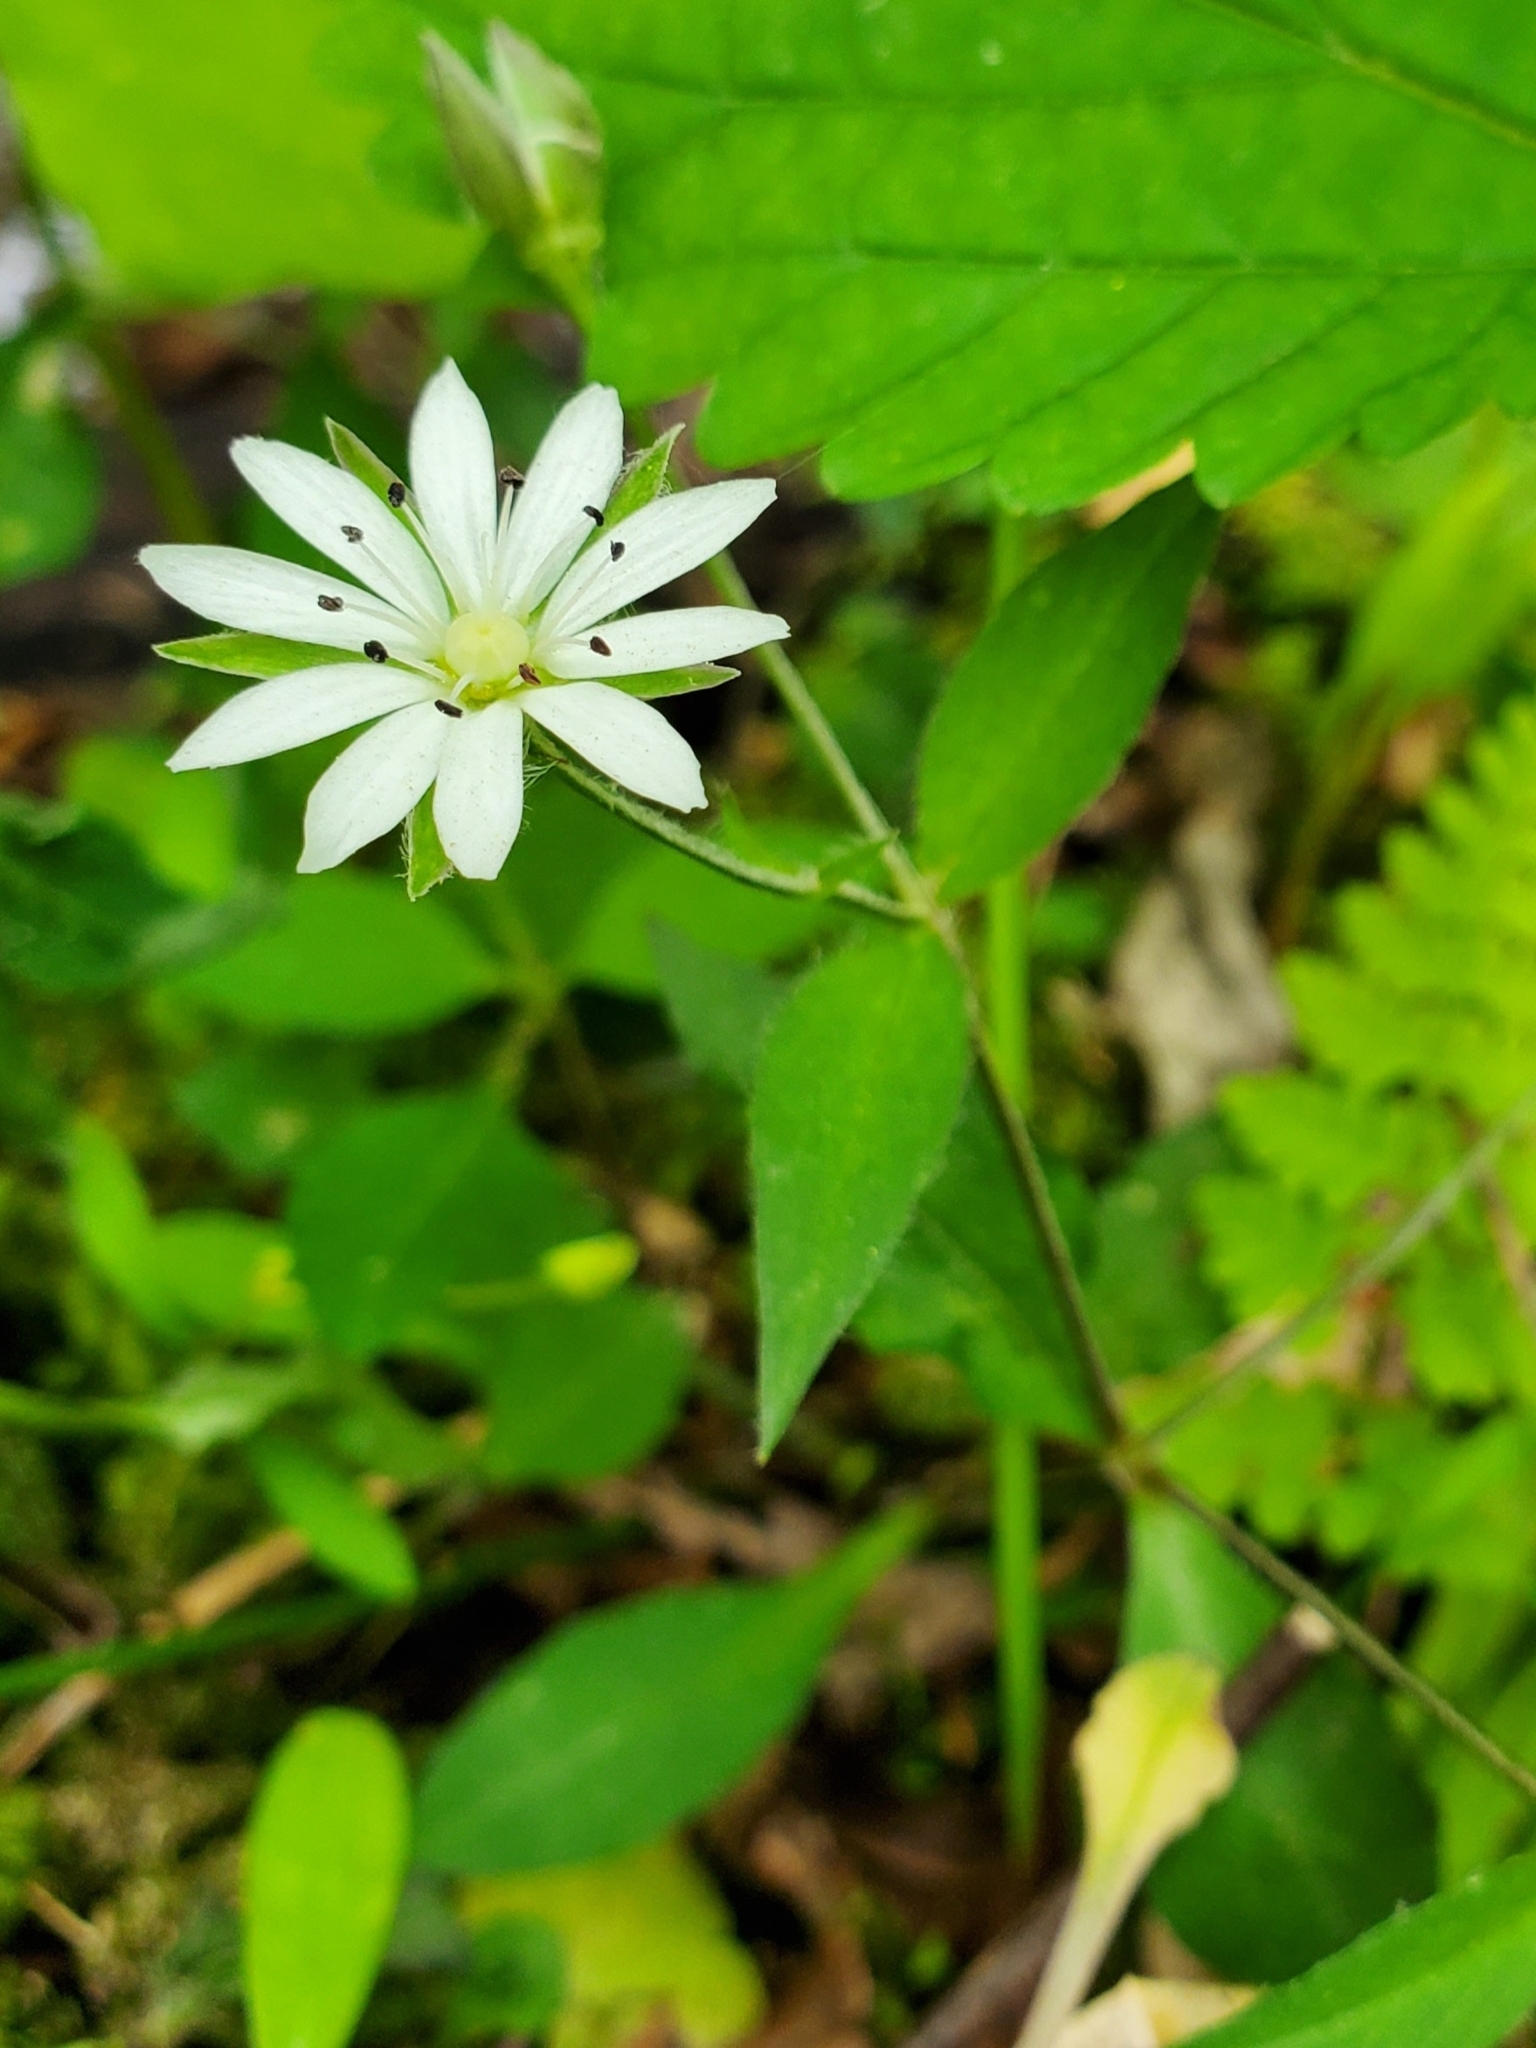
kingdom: Plantae
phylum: Tracheophyta
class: Magnoliopsida
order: Caryophyllales
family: Caryophyllaceae
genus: Stellaria
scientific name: Stellaria pubera
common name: Star chickweed
